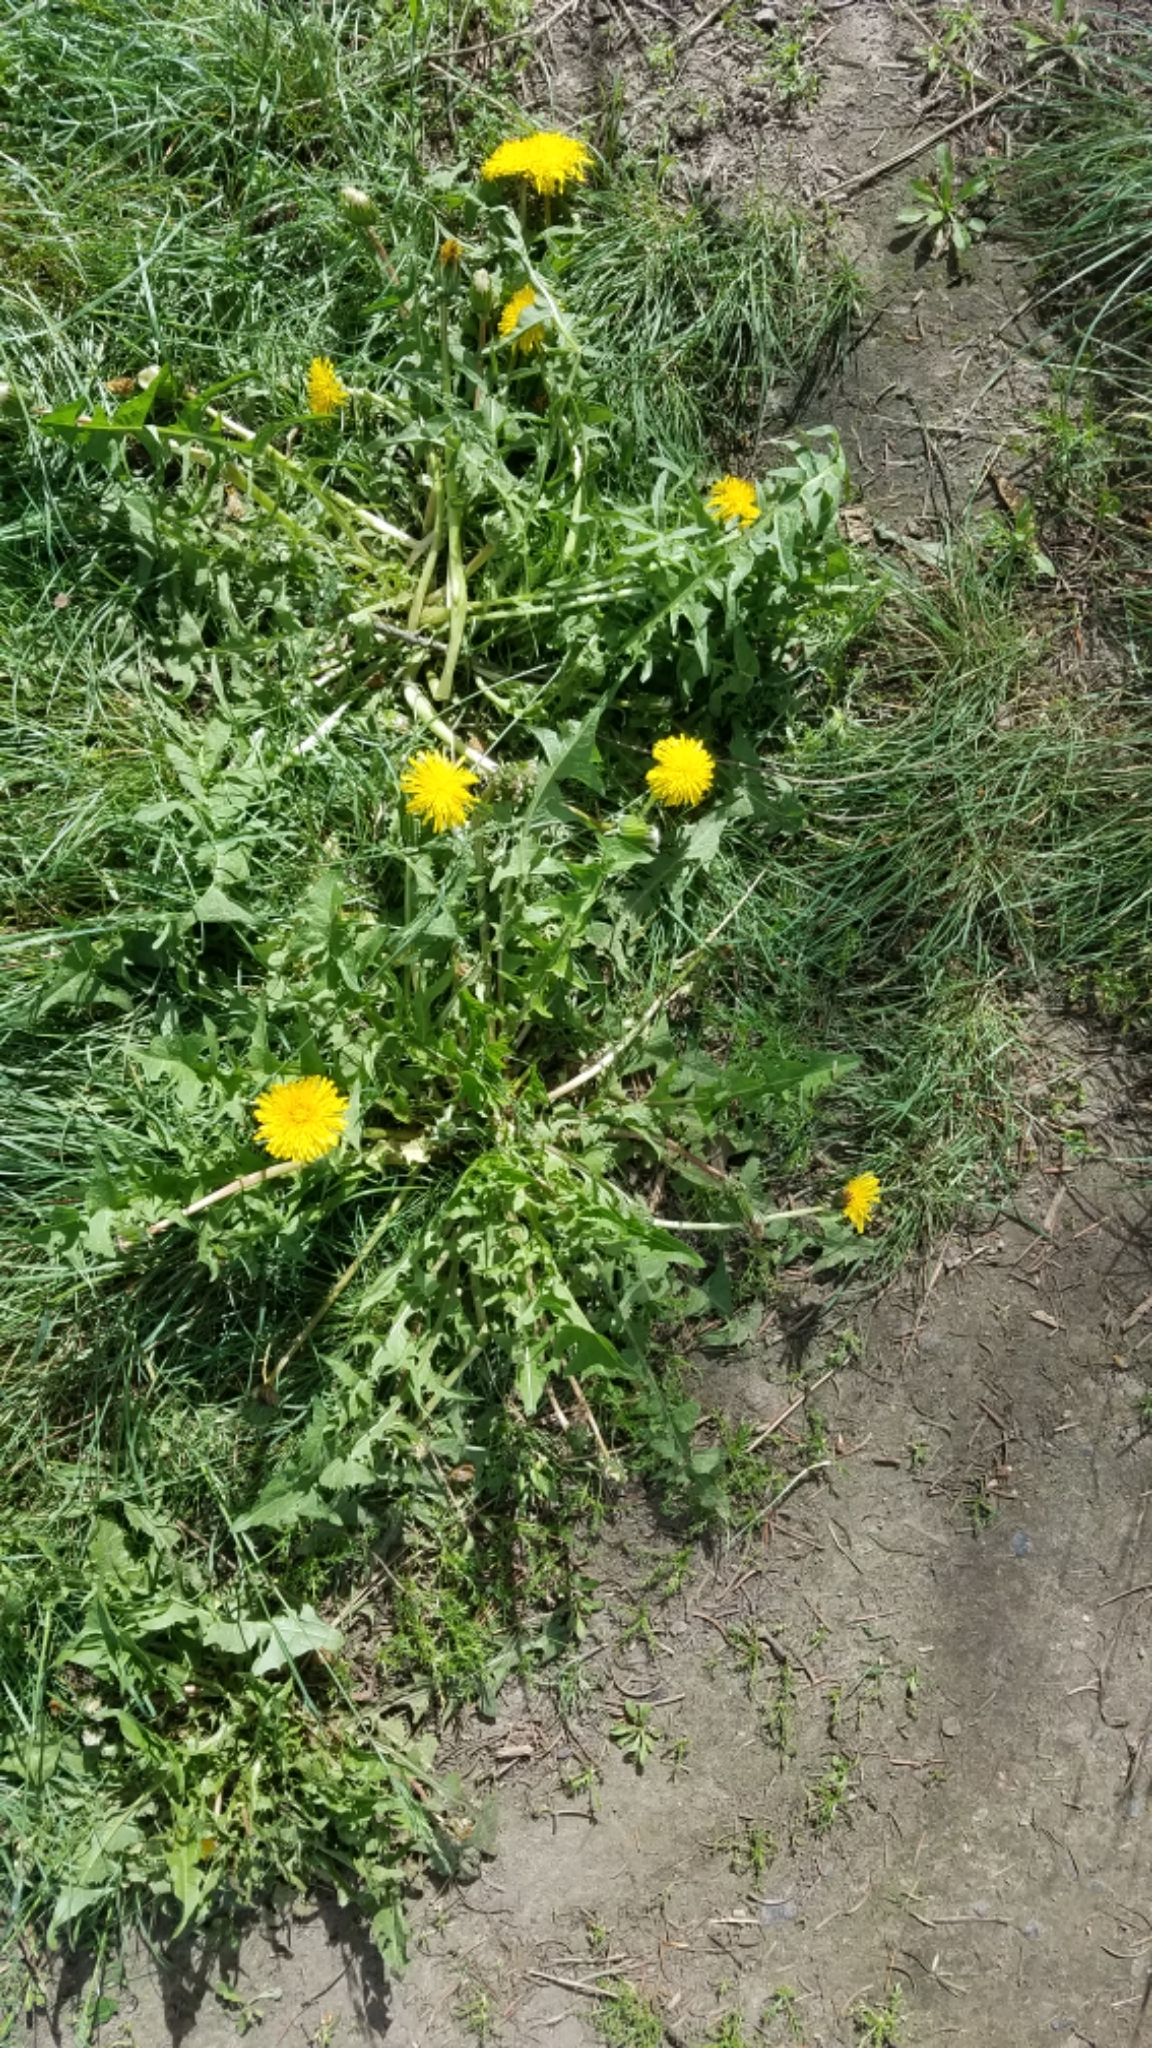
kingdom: Plantae
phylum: Tracheophyta
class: Magnoliopsida
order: Asterales
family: Asteraceae
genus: Taraxacum
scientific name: Taraxacum officinale
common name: Common dandelion
